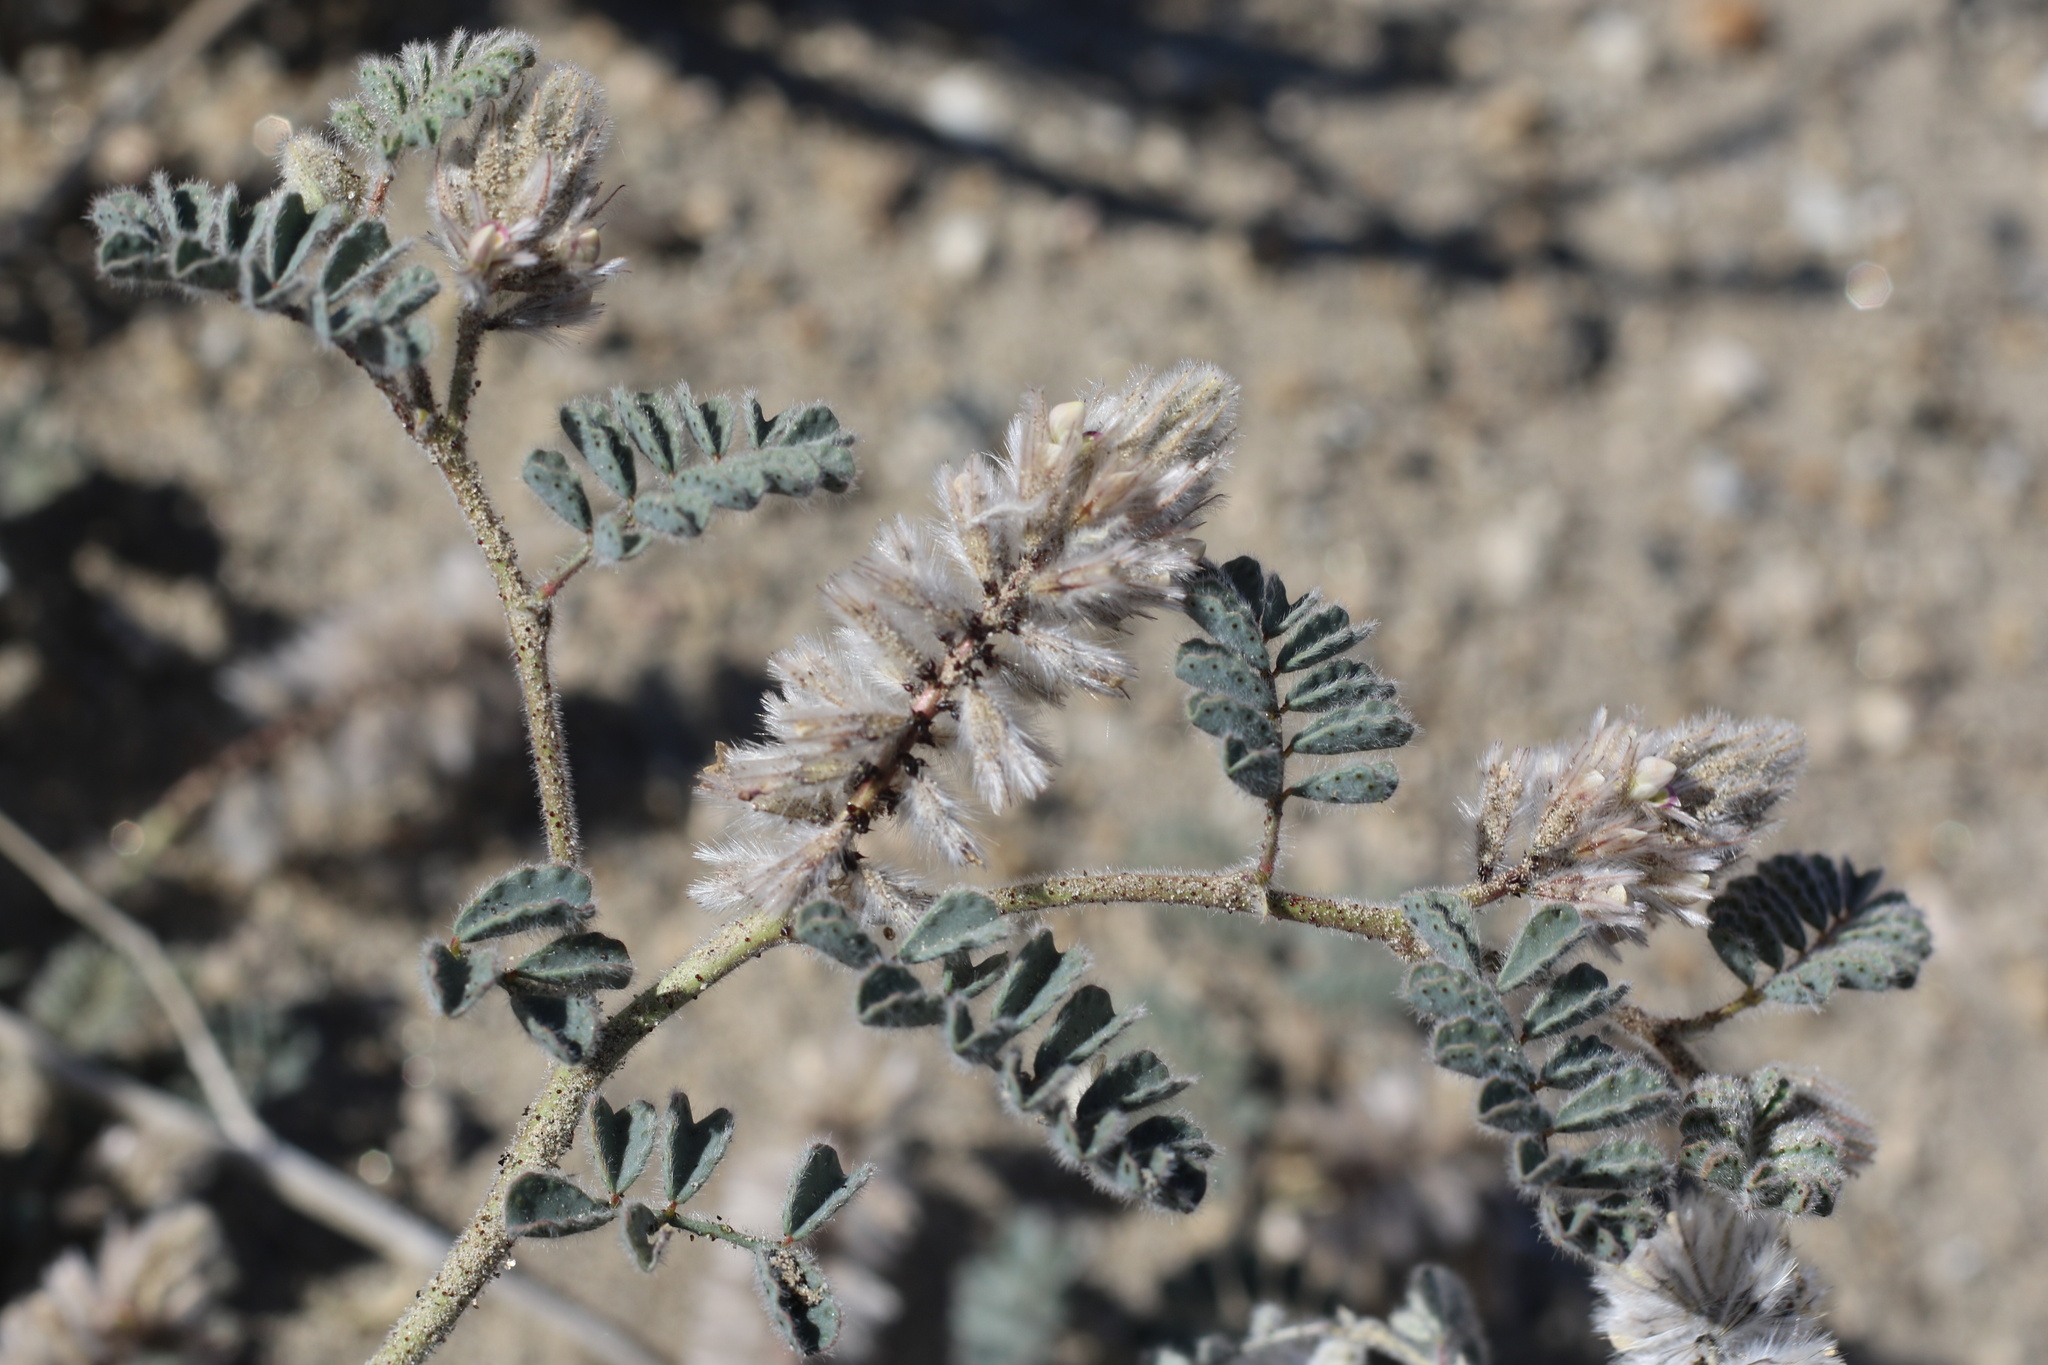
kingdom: Plantae
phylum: Tracheophyta
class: Magnoliopsida
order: Fabales
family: Fabaceae
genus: Dalea
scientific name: Dalea mollissima
